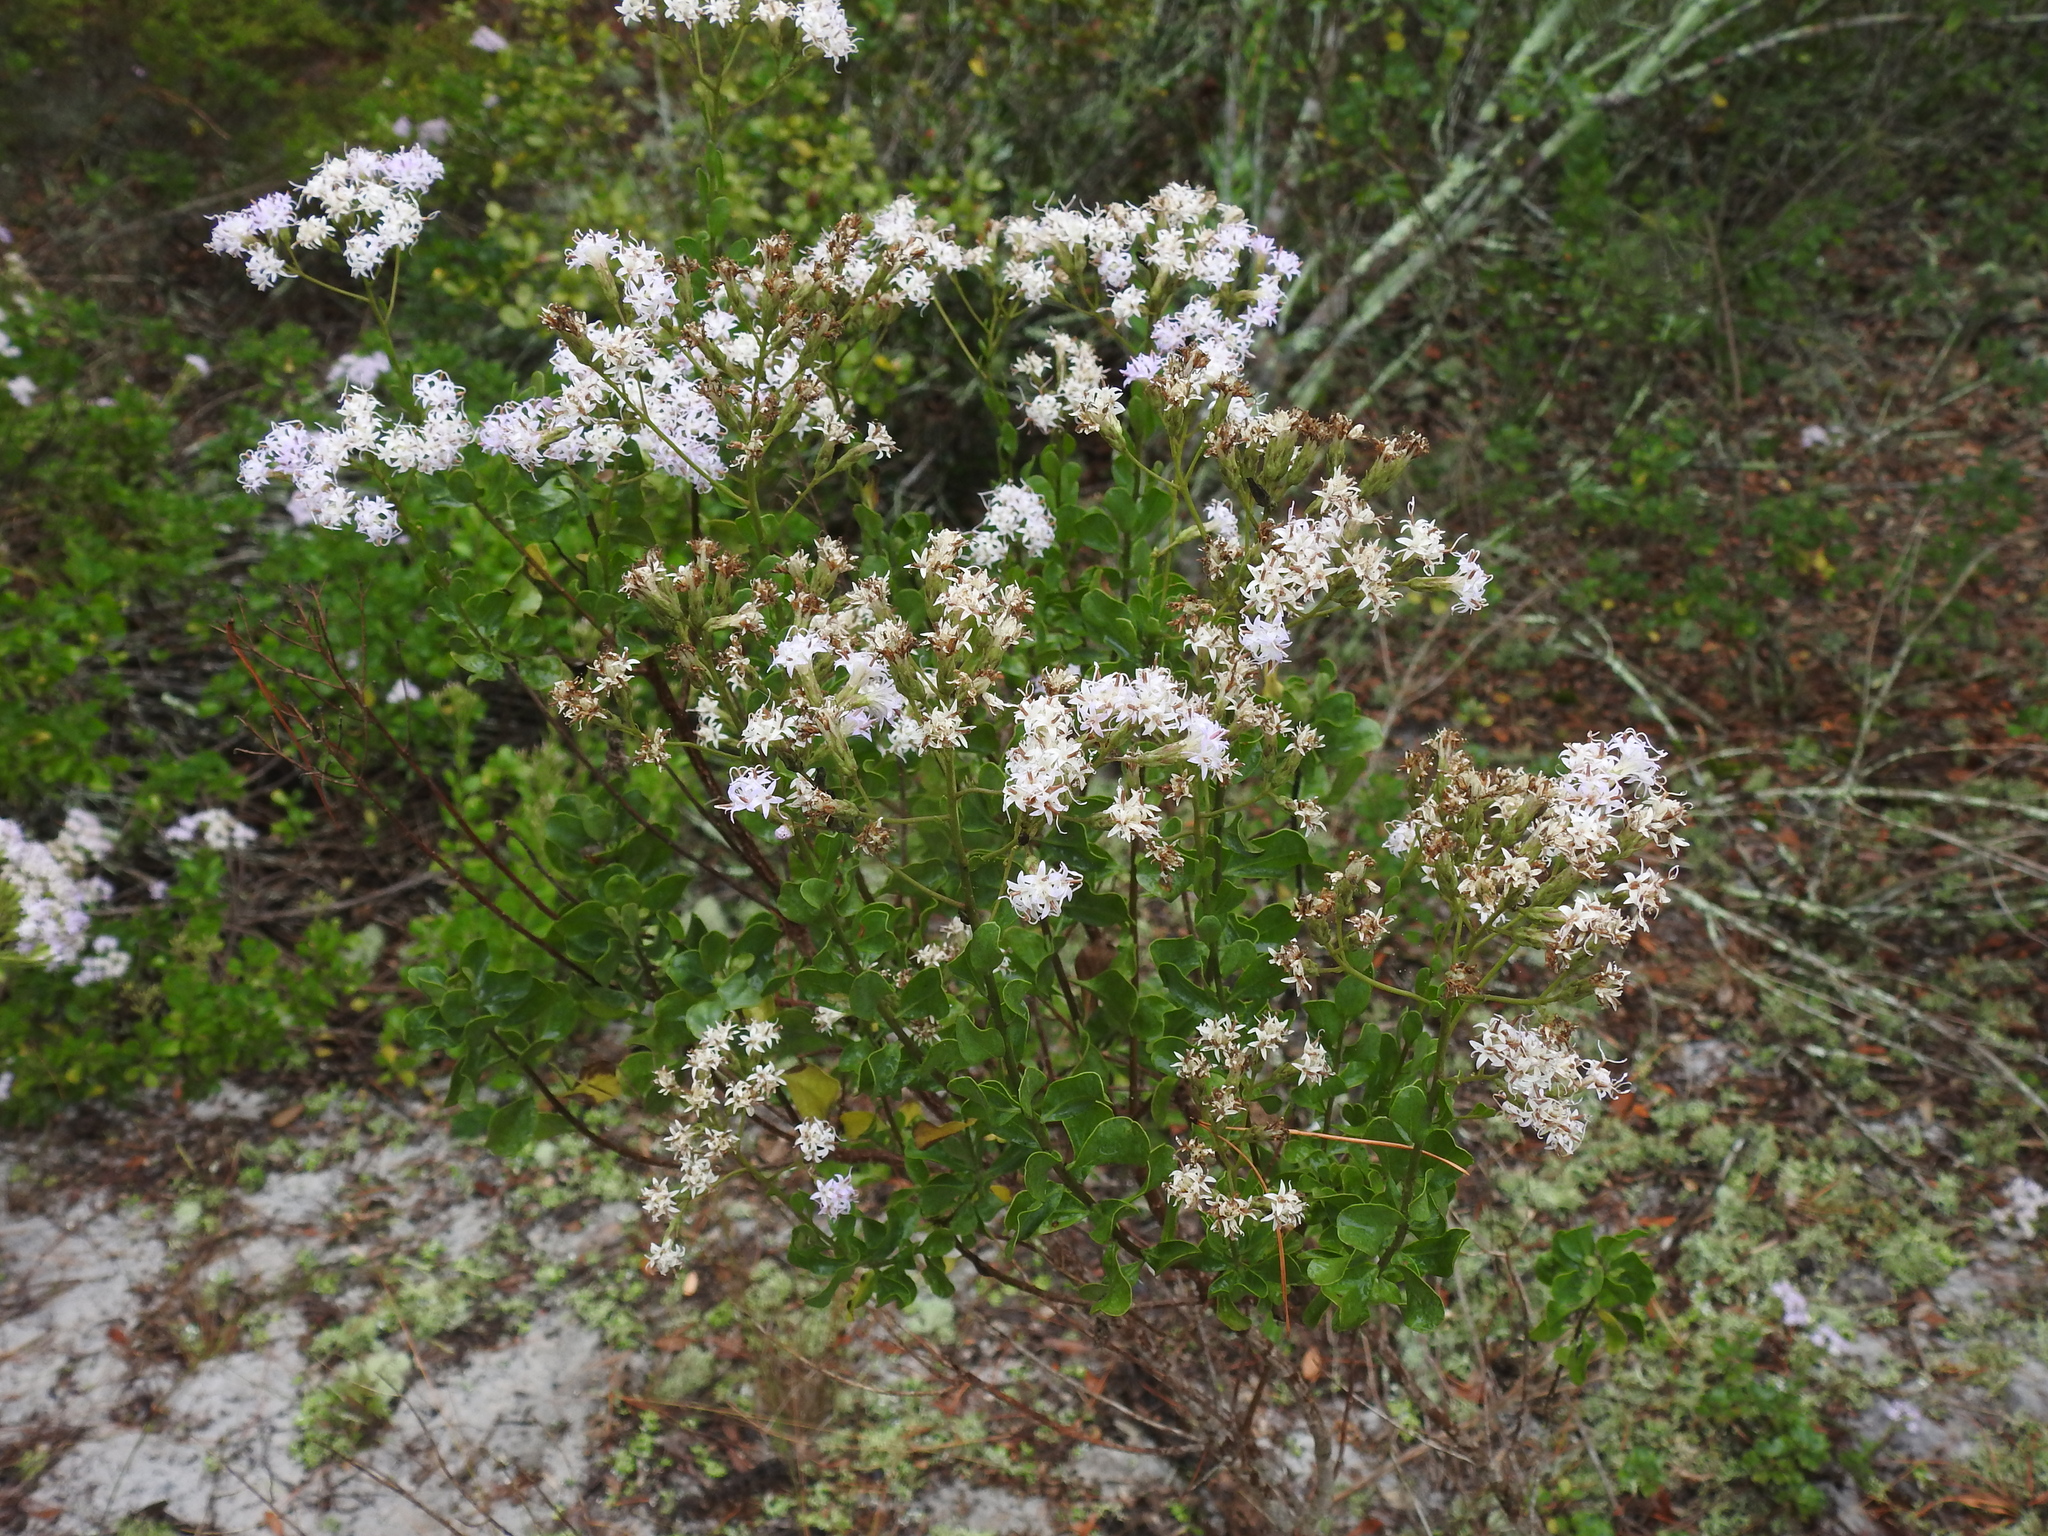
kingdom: Plantae
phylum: Tracheophyta
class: Magnoliopsida
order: Asterales
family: Asteraceae
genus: Garberia
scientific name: Garberia heterophylla
